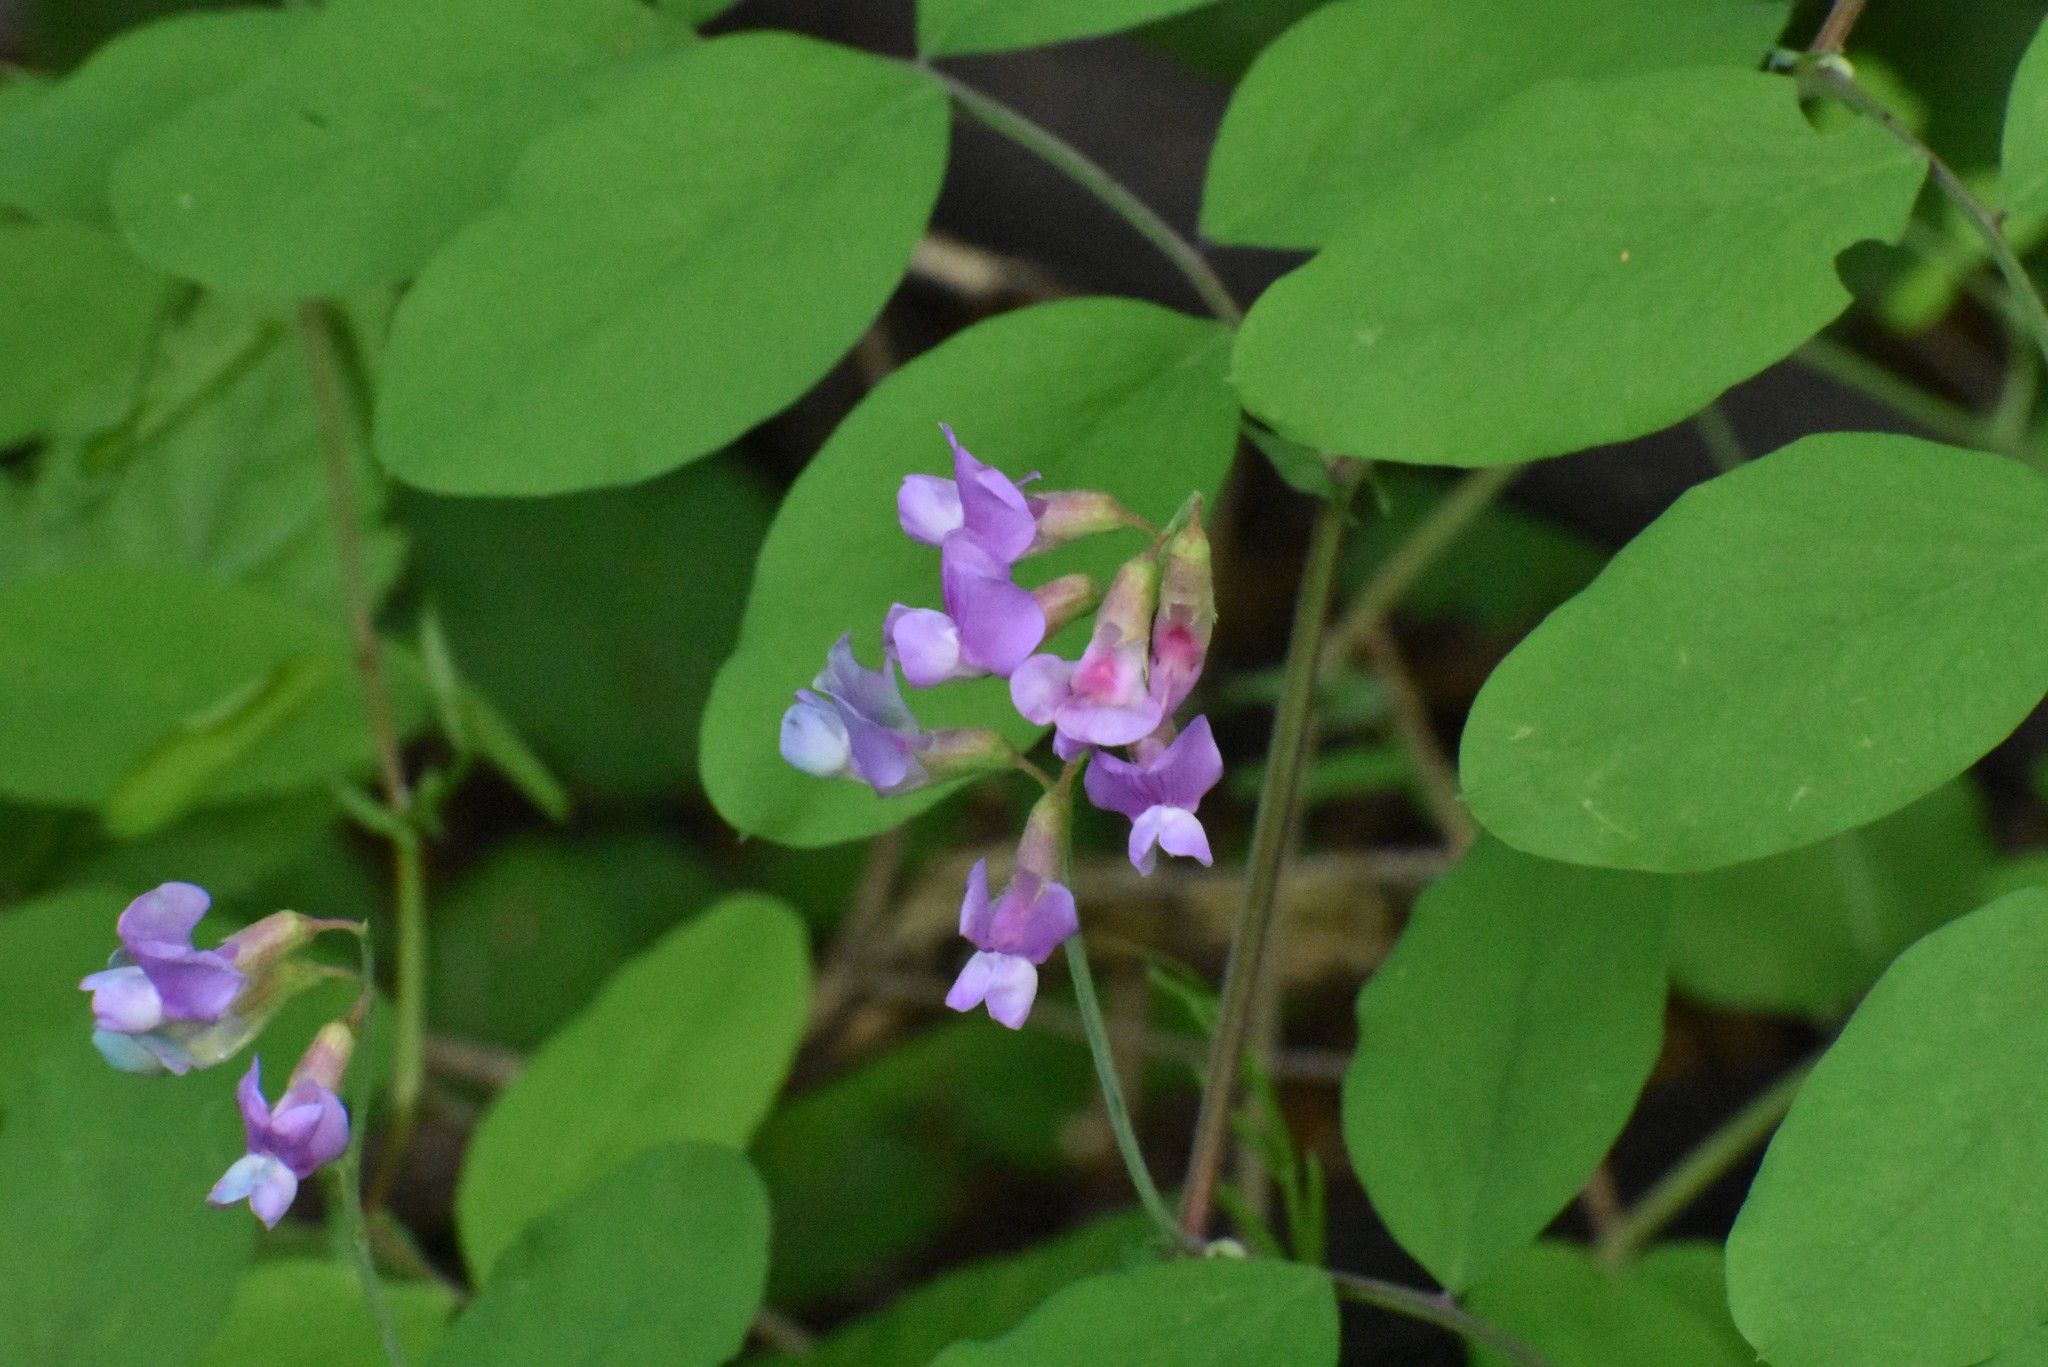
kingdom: Plantae
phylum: Tracheophyta
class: Magnoliopsida
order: Fabales
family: Fabaceae
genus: Lathyrus
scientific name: Lathyrus nevadensis
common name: Sierra nevada peavine
